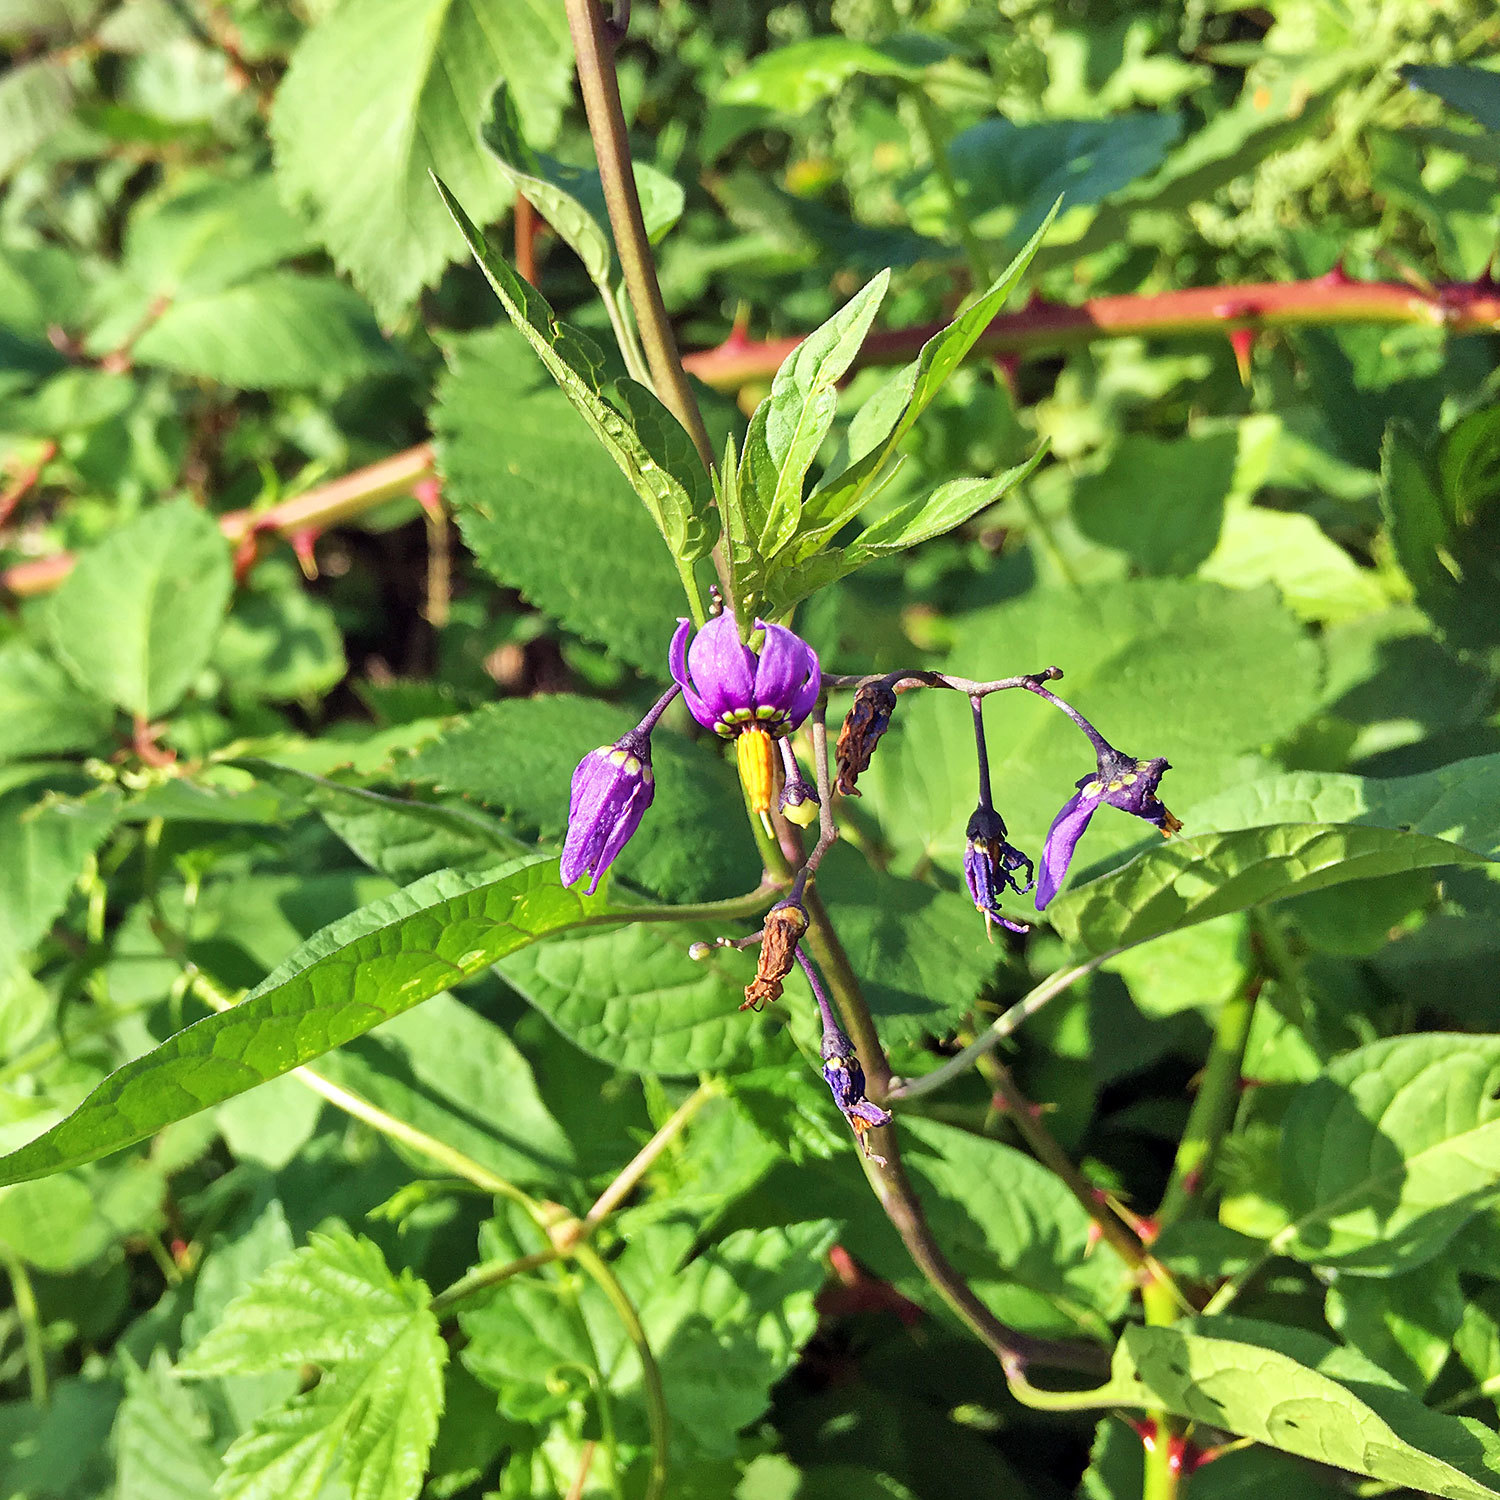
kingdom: Plantae
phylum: Tracheophyta
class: Magnoliopsida
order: Solanales
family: Solanaceae
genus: Solanum
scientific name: Solanum dulcamara
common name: Climbing nightshade
